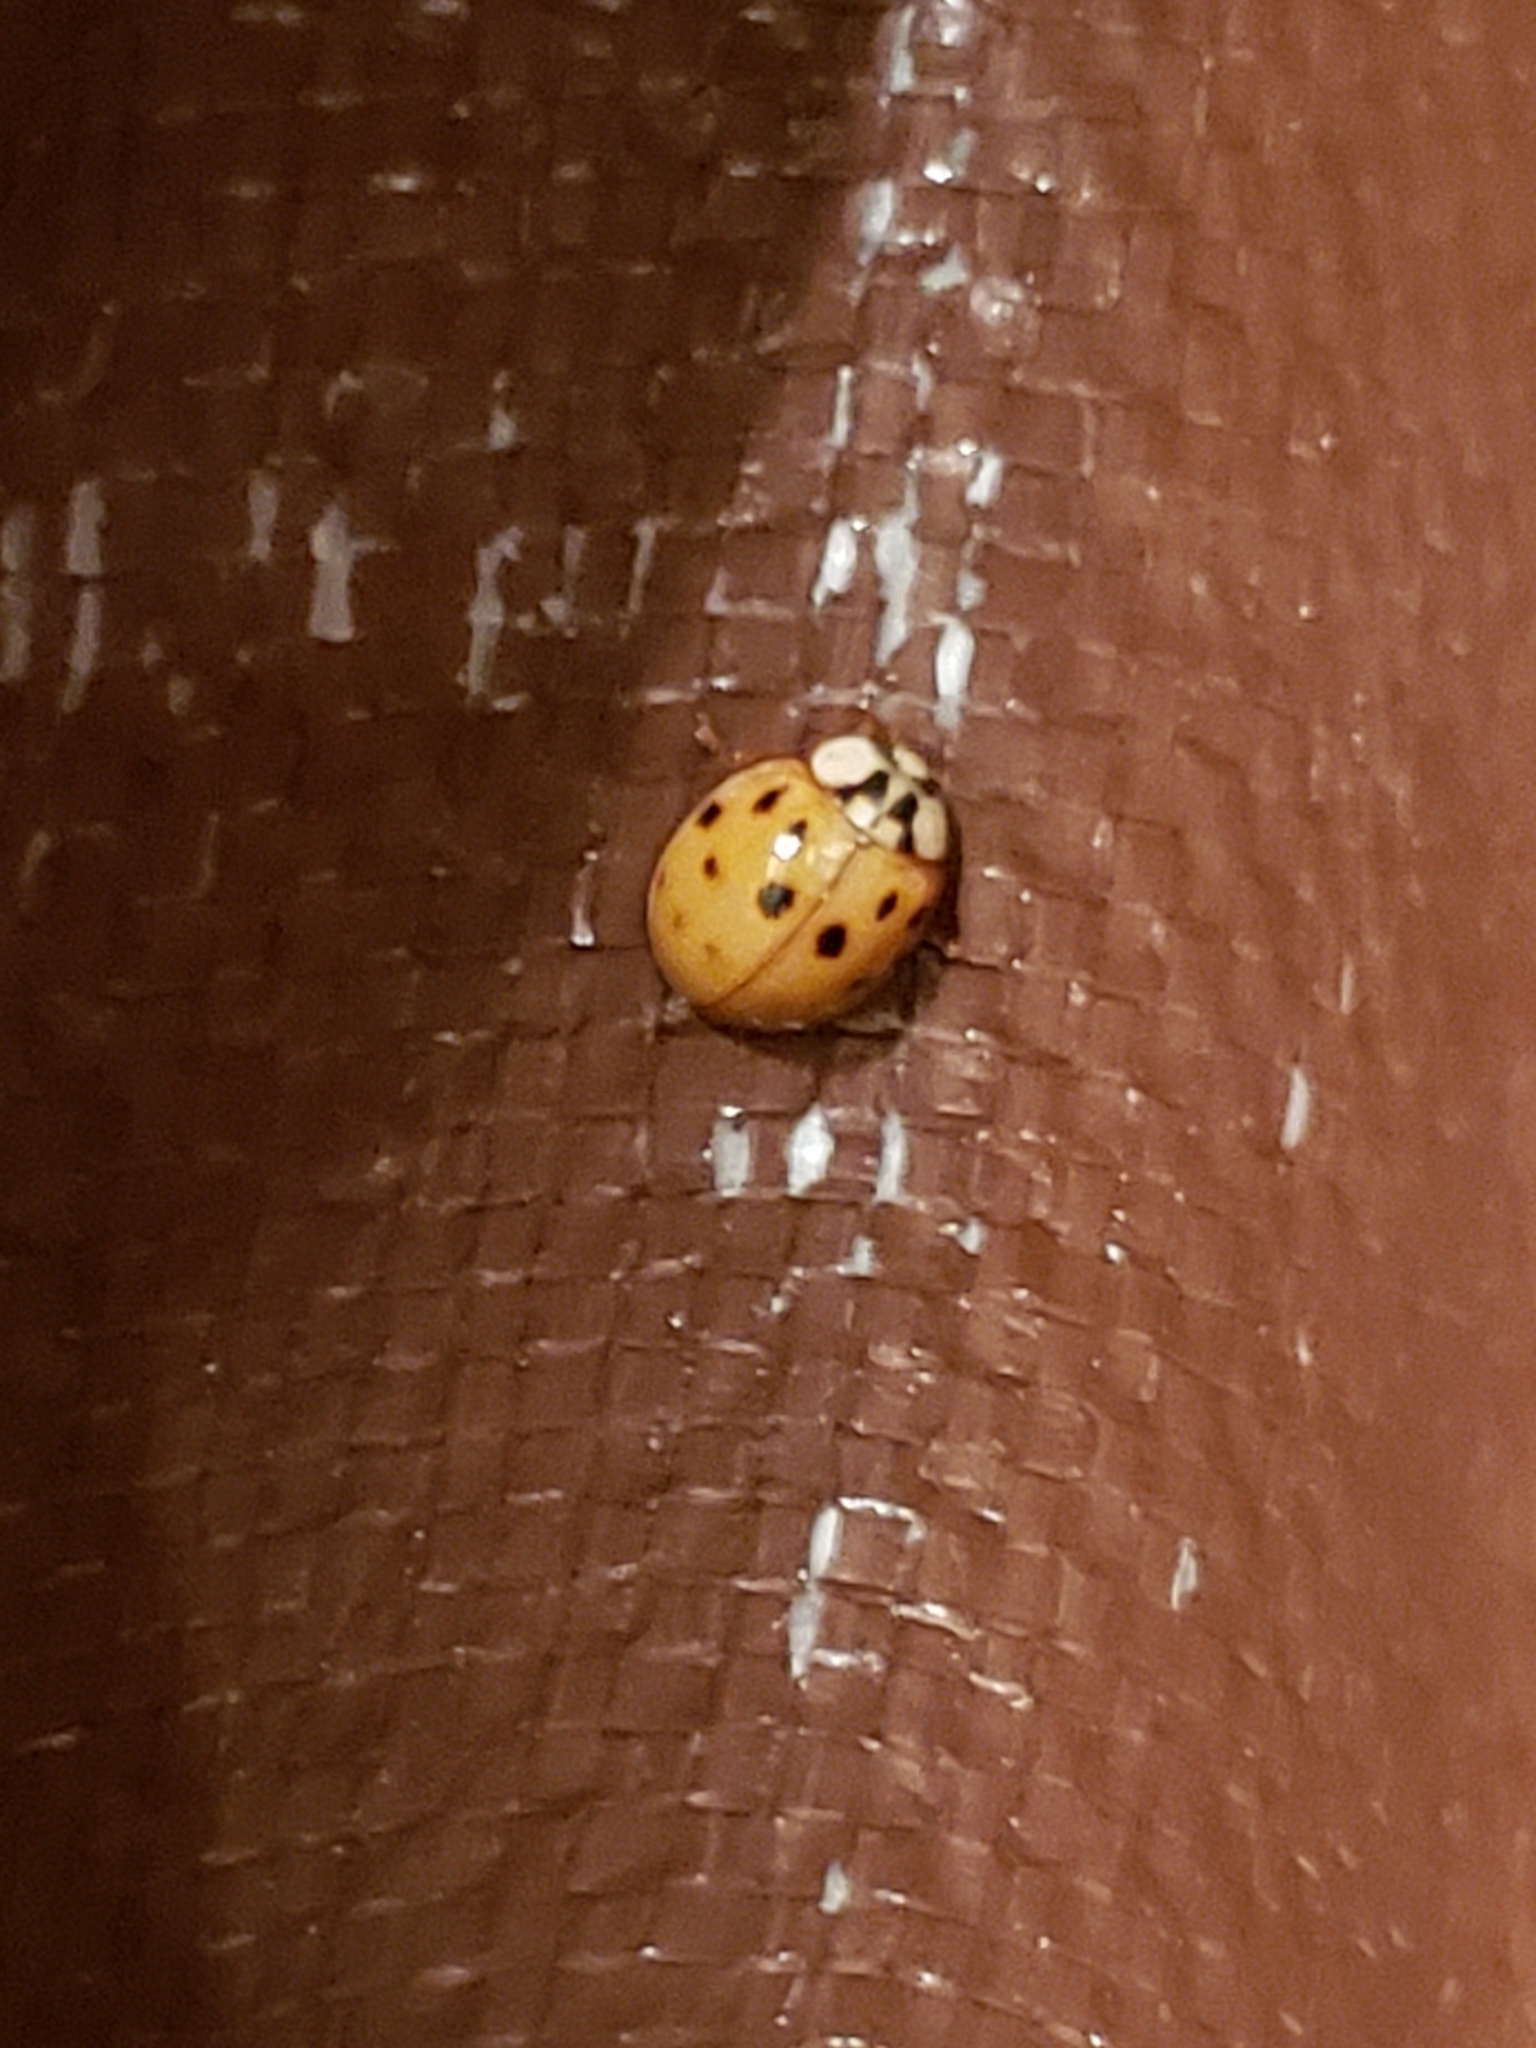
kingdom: Animalia
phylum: Arthropoda
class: Insecta
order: Coleoptera
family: Coccinellidae
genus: Harmonia
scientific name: Harmonia axyridis
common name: Harlequin ladybird
